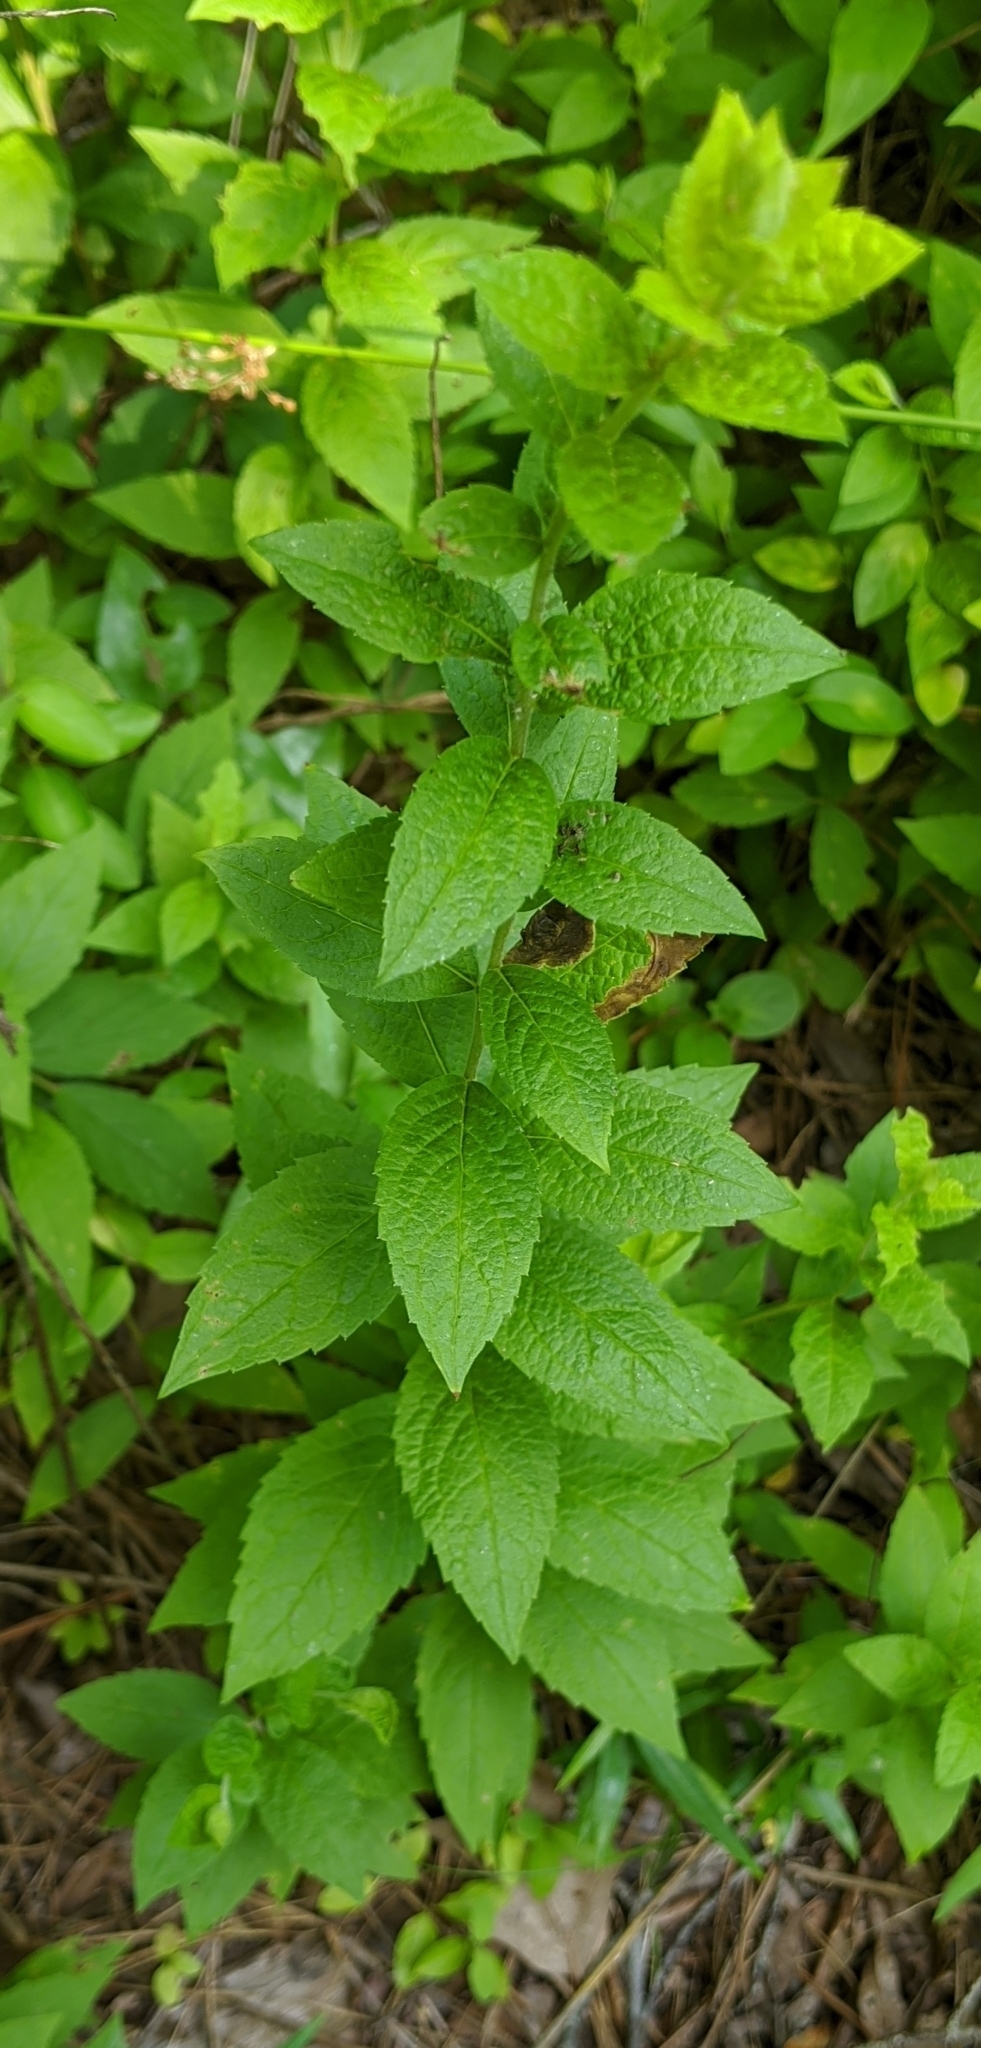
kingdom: Plantae
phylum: Tracheophyta
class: Magnoliopsida
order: Asterales
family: Asteraceae
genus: Solidago
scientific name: Solidago rugosa
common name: Rough-stemmed goldenrod
